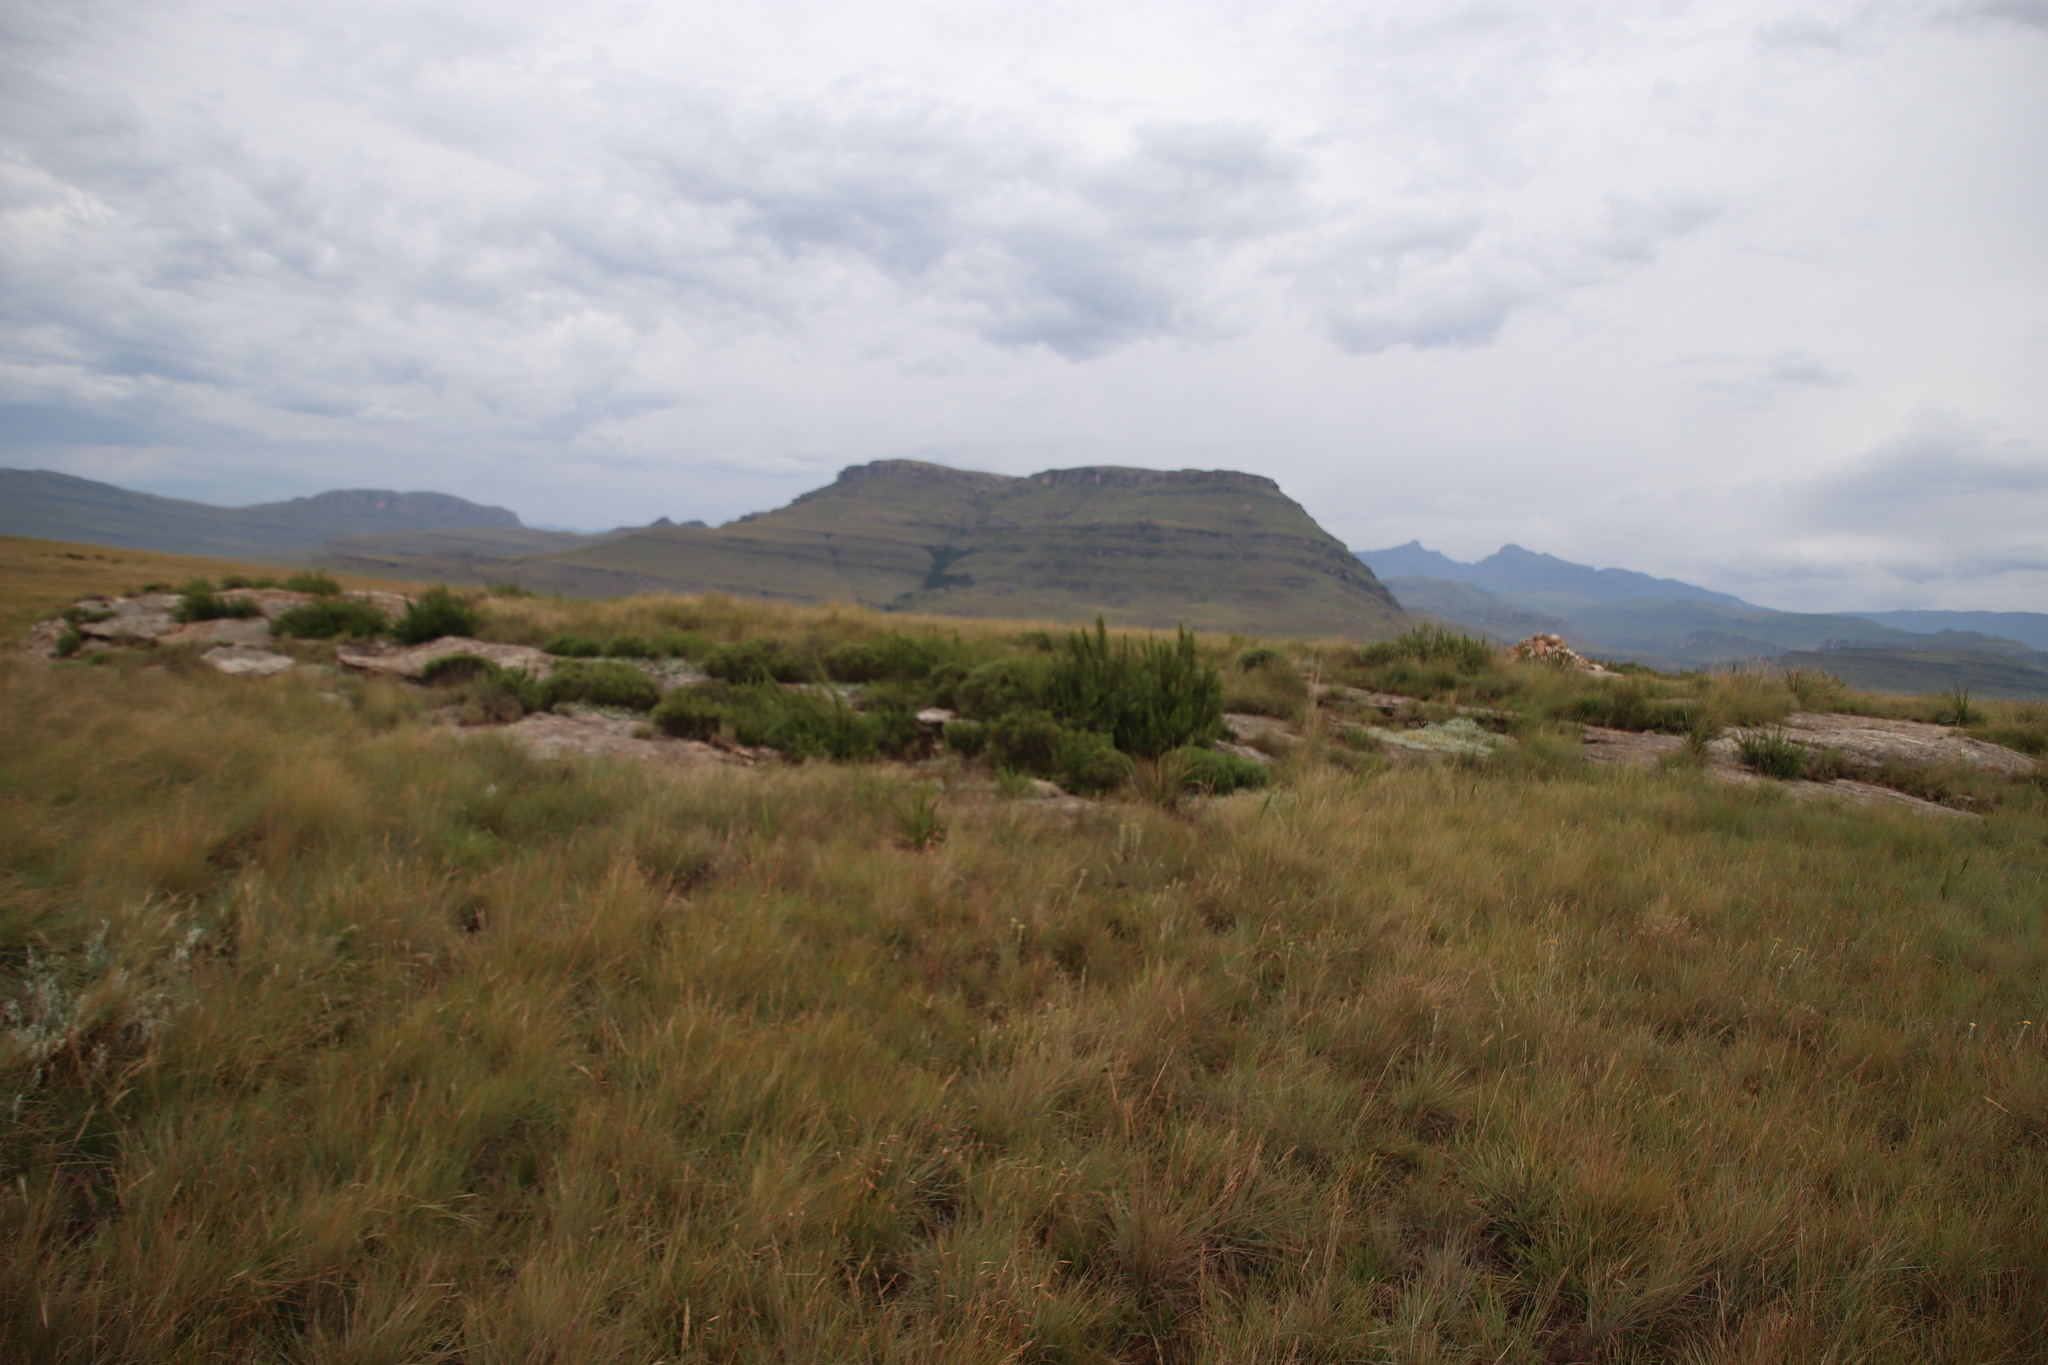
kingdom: Plantae
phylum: Tracheophyta
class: Magnoliopsida
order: Rosales
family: Rosaceae
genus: Cliffortia
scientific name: Cliffortia paucistaminea
